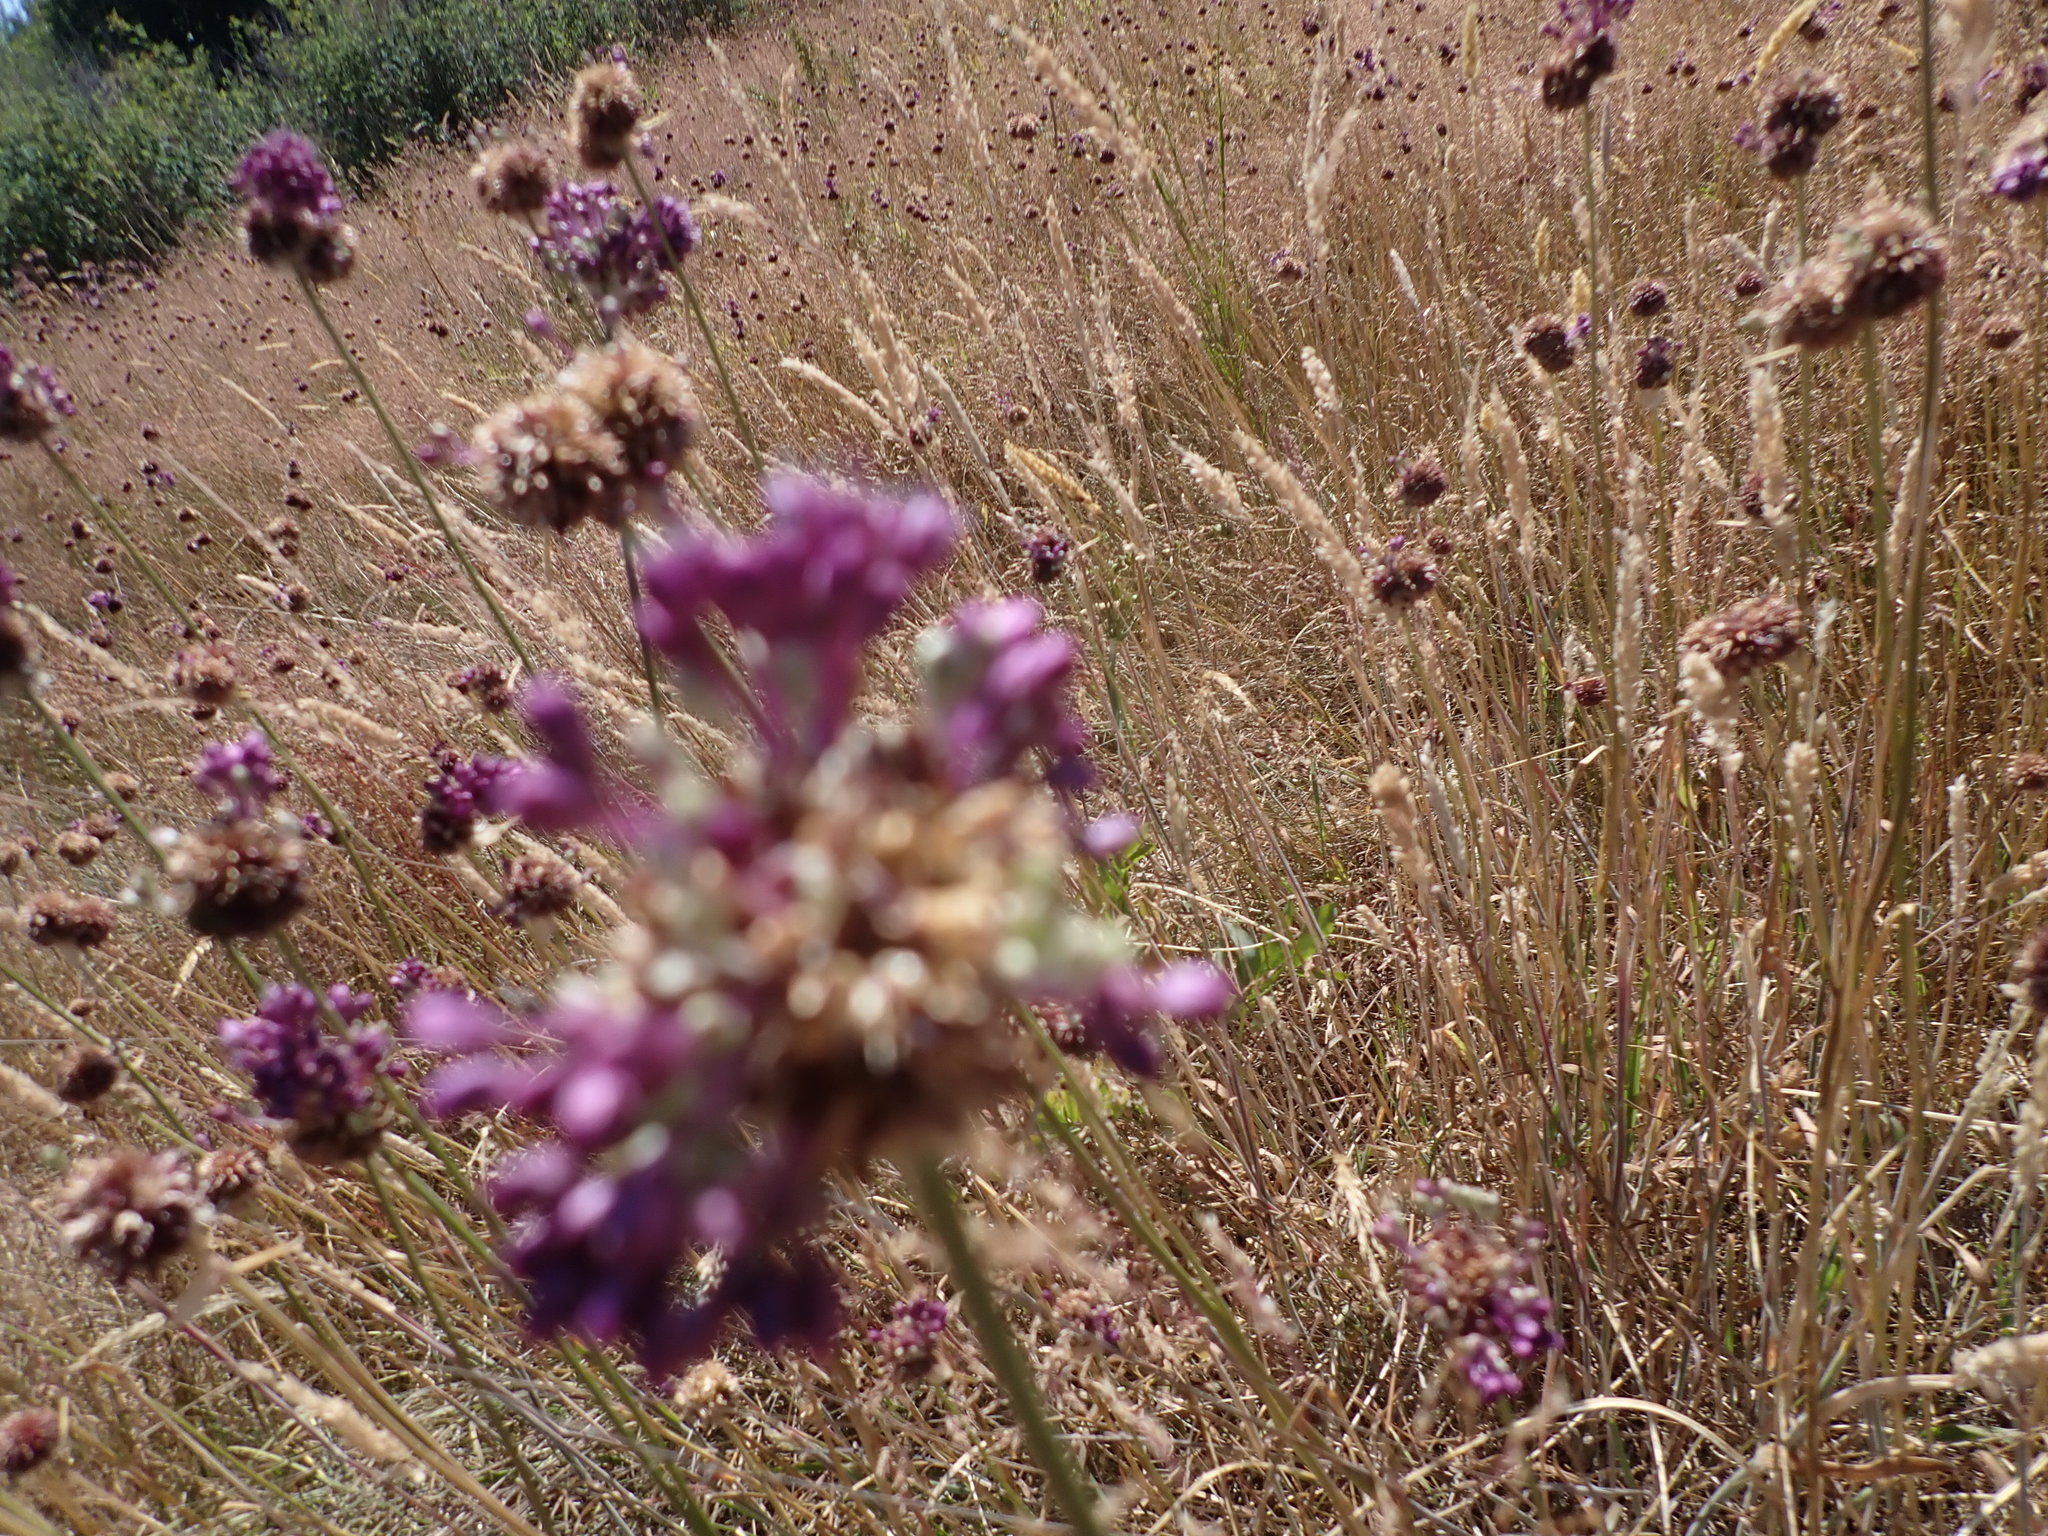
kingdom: Plantae
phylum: Tracheophyta
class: Liliopsida
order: Asparagales
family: Amaryllidaceae
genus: Allium
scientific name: Allium vineale
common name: Crow garlic
